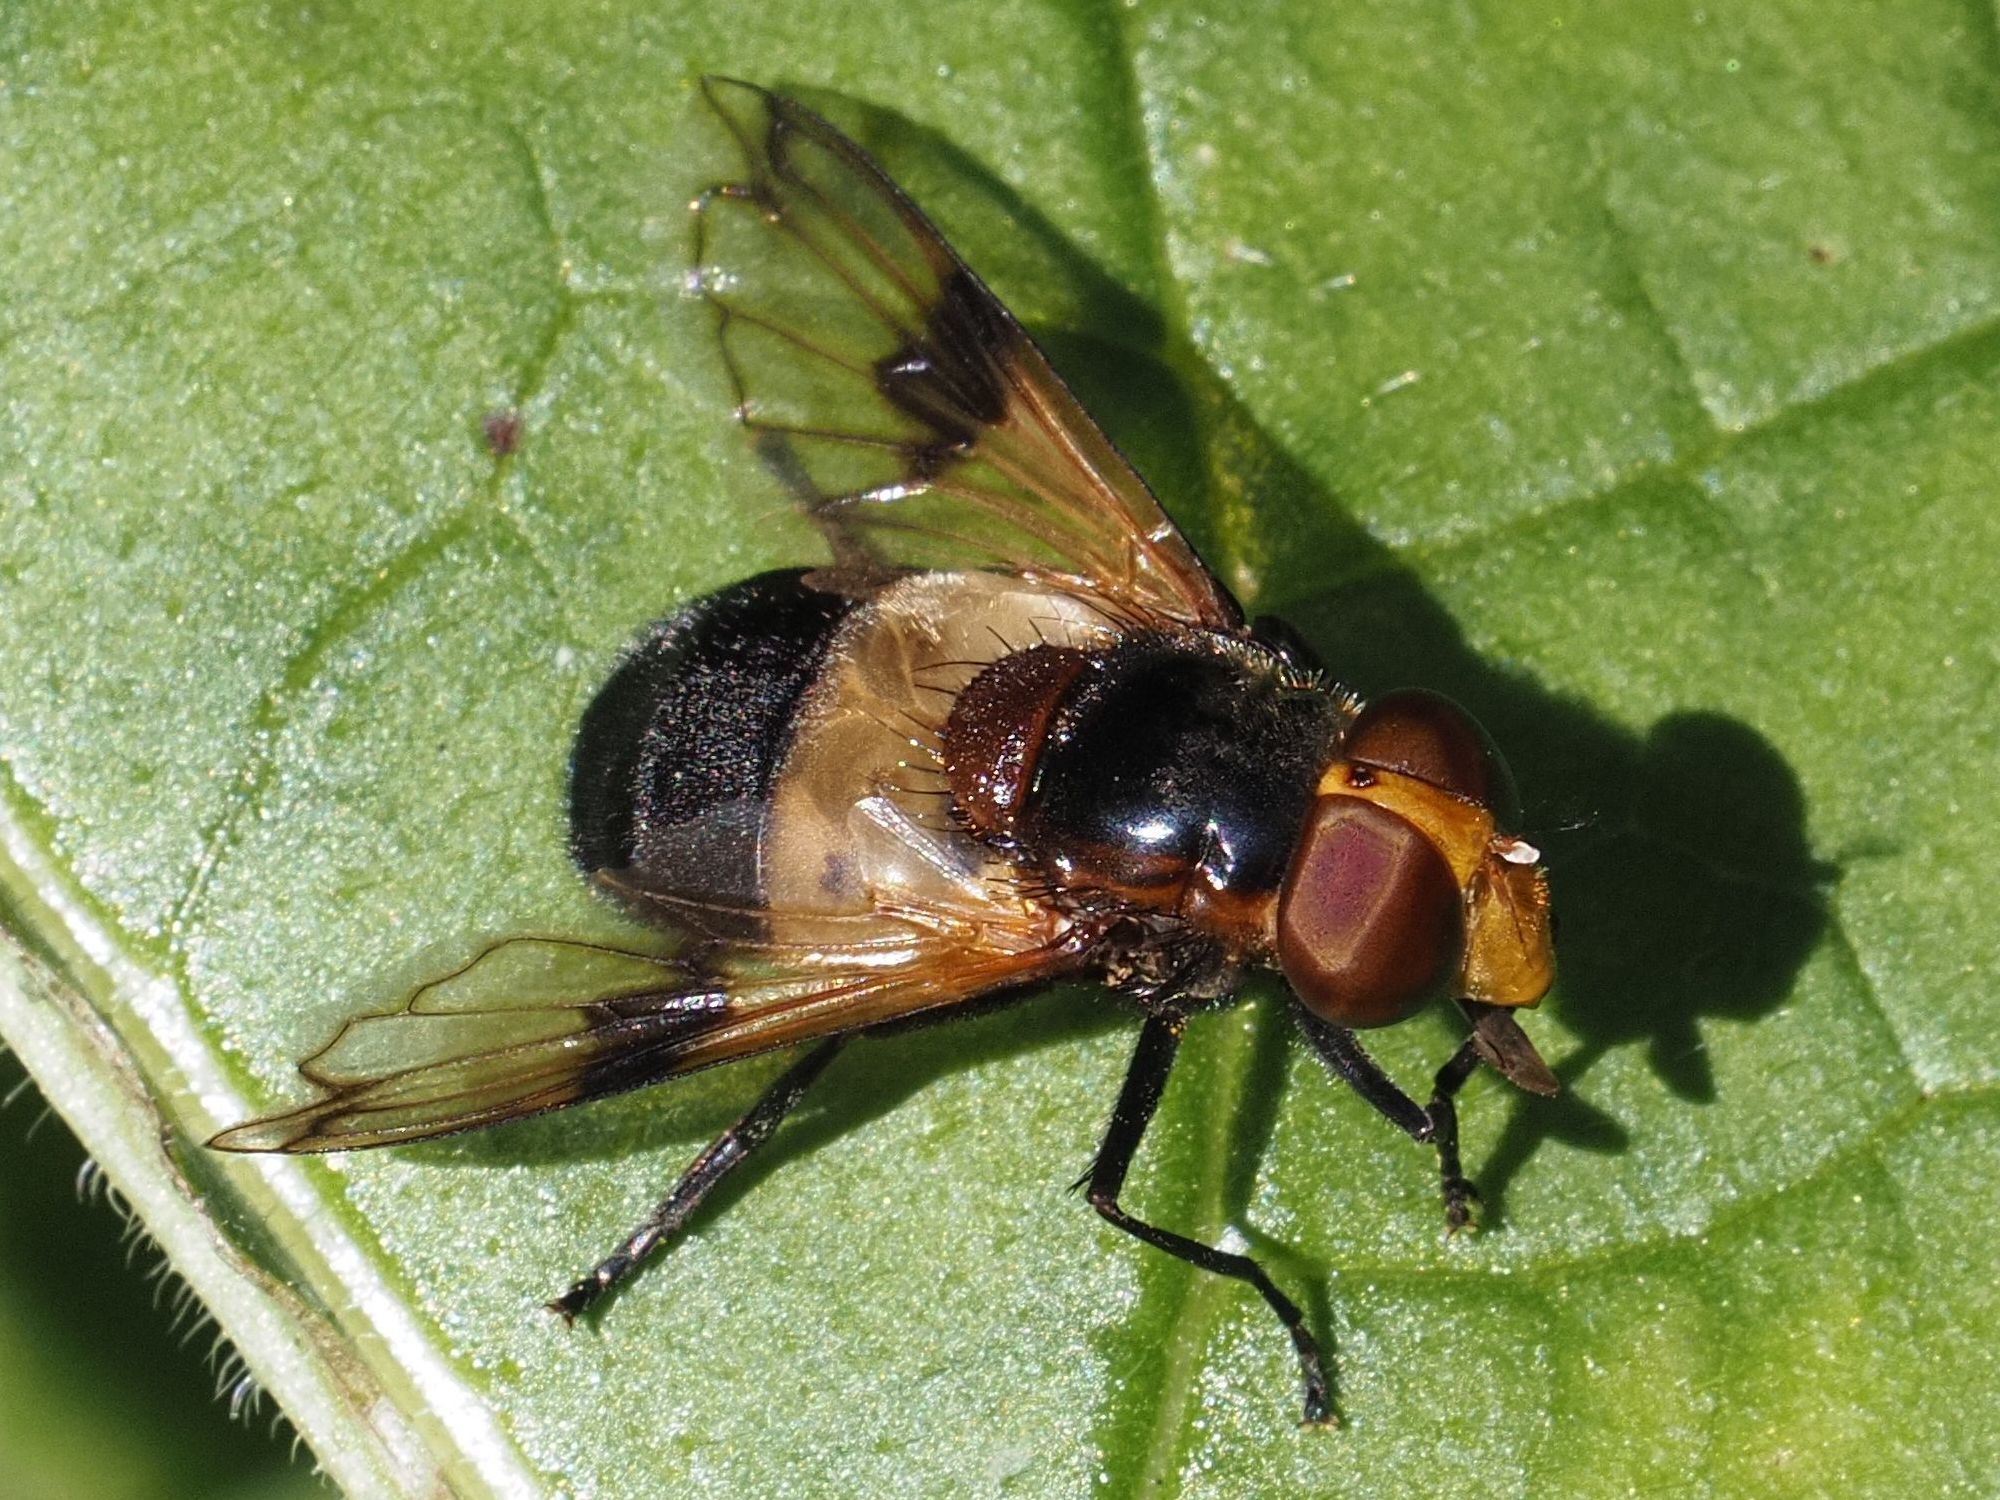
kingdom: Animalia
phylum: Arthropoda
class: Insecta
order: Diptera
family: Syrphidae
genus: Volucella
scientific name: Volucella pellucens
